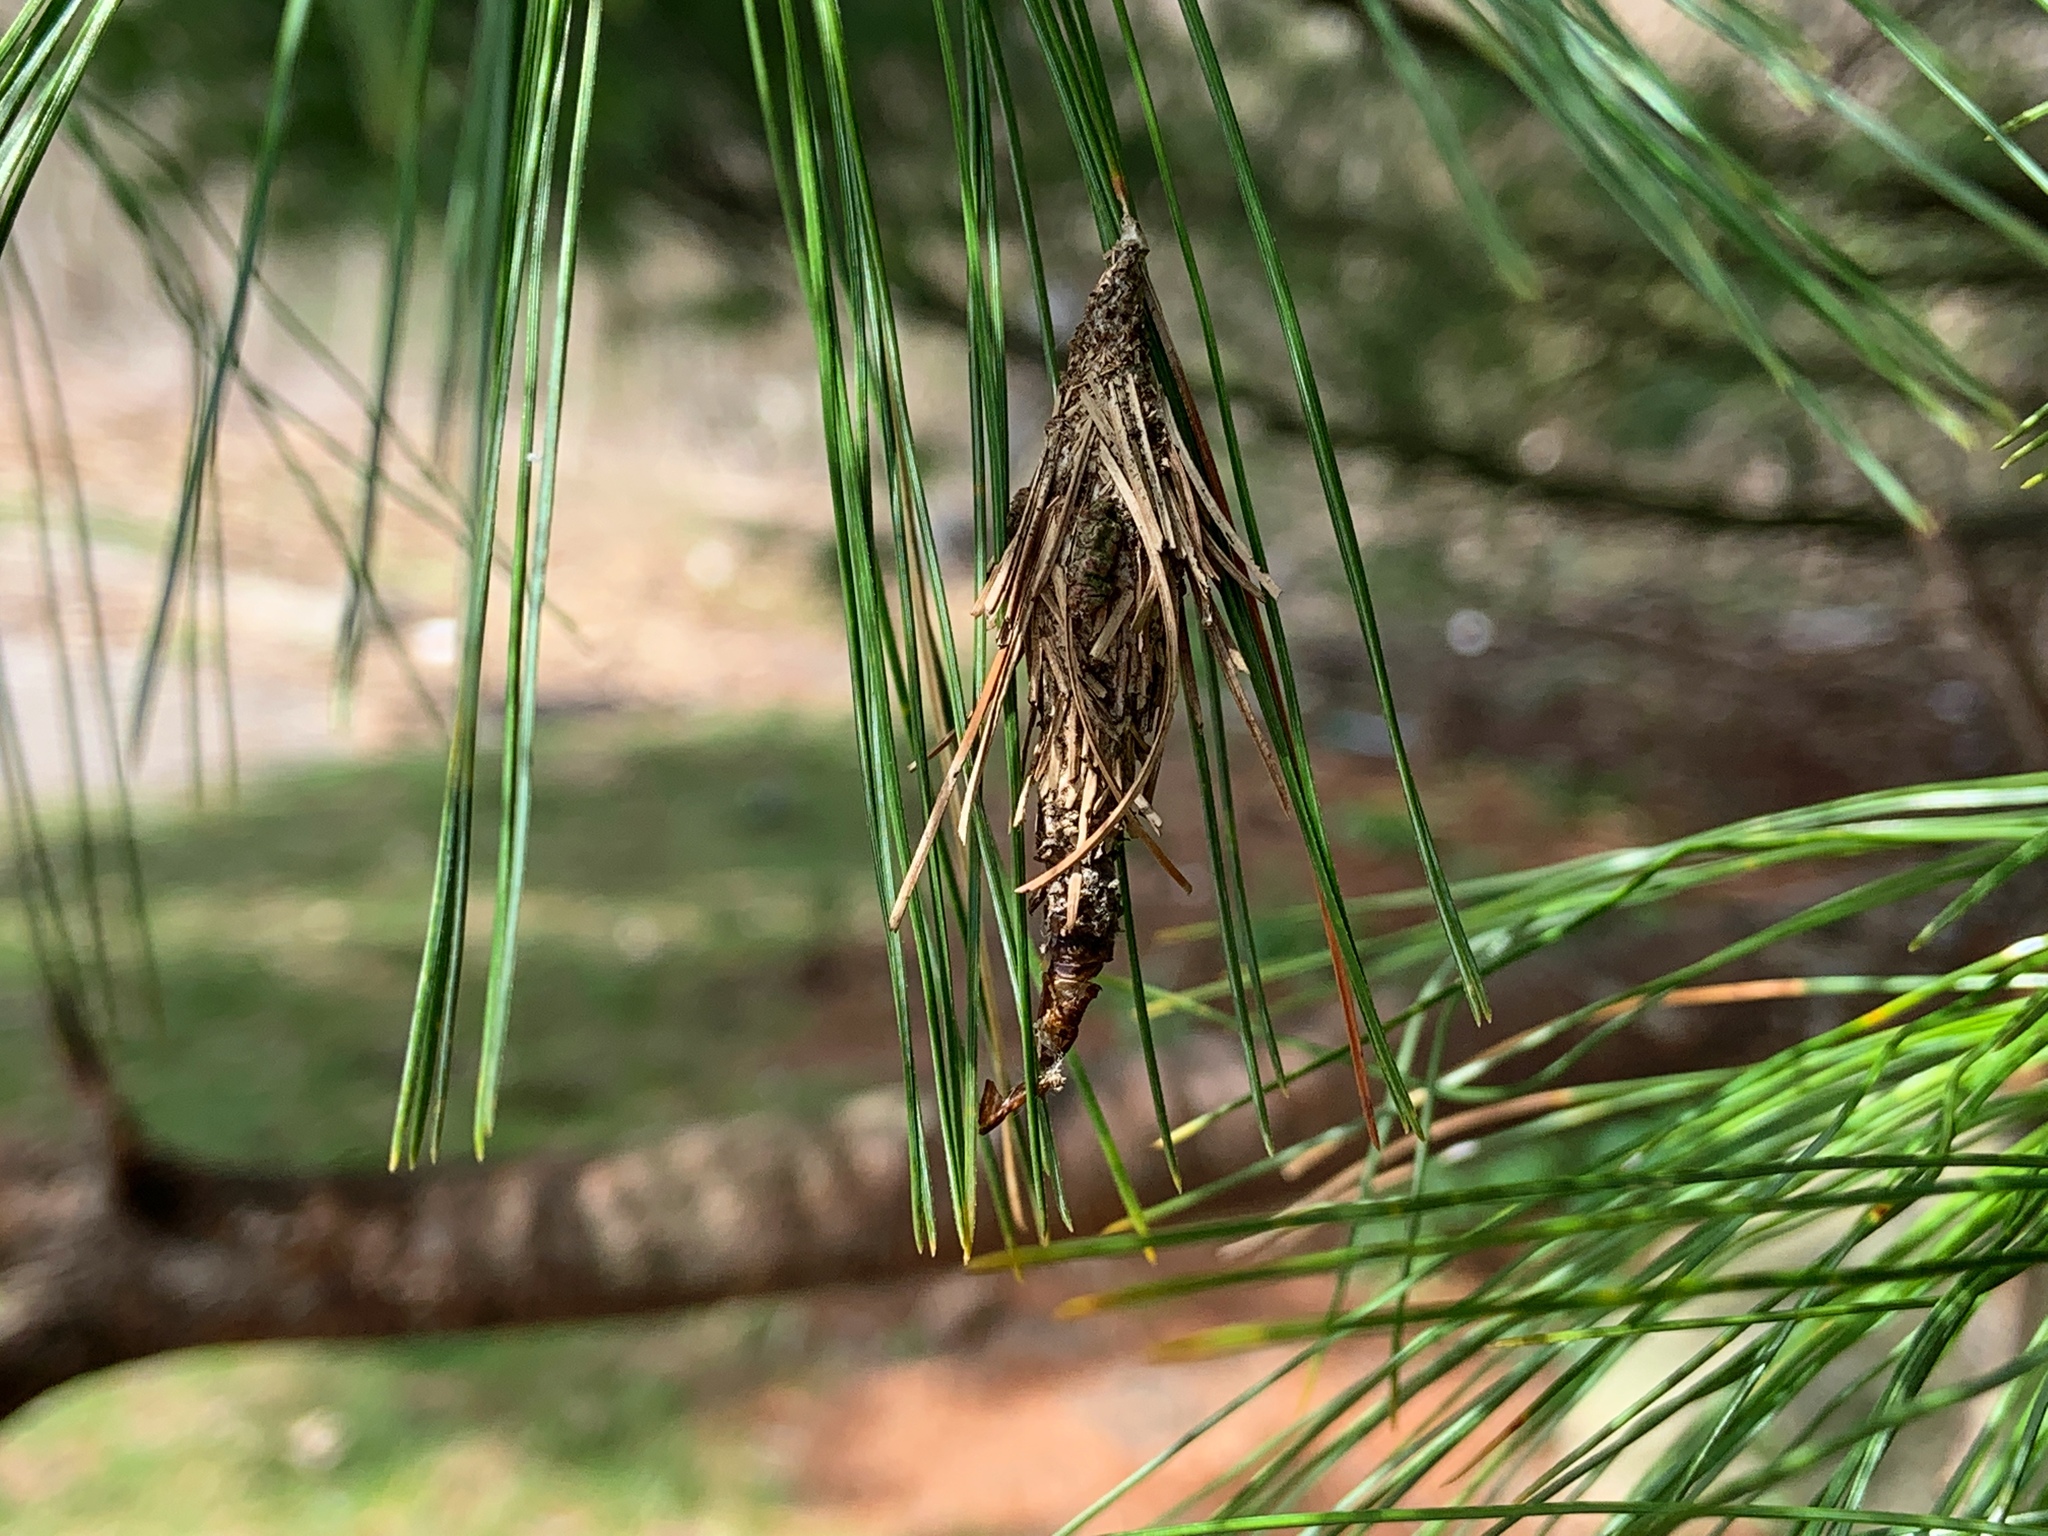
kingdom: Animalia
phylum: Arthropoda
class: Insecta
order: Lepidoptera
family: Psychidae
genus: Thyridopteryx
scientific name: Thyridopteryx ephemeraeformis
